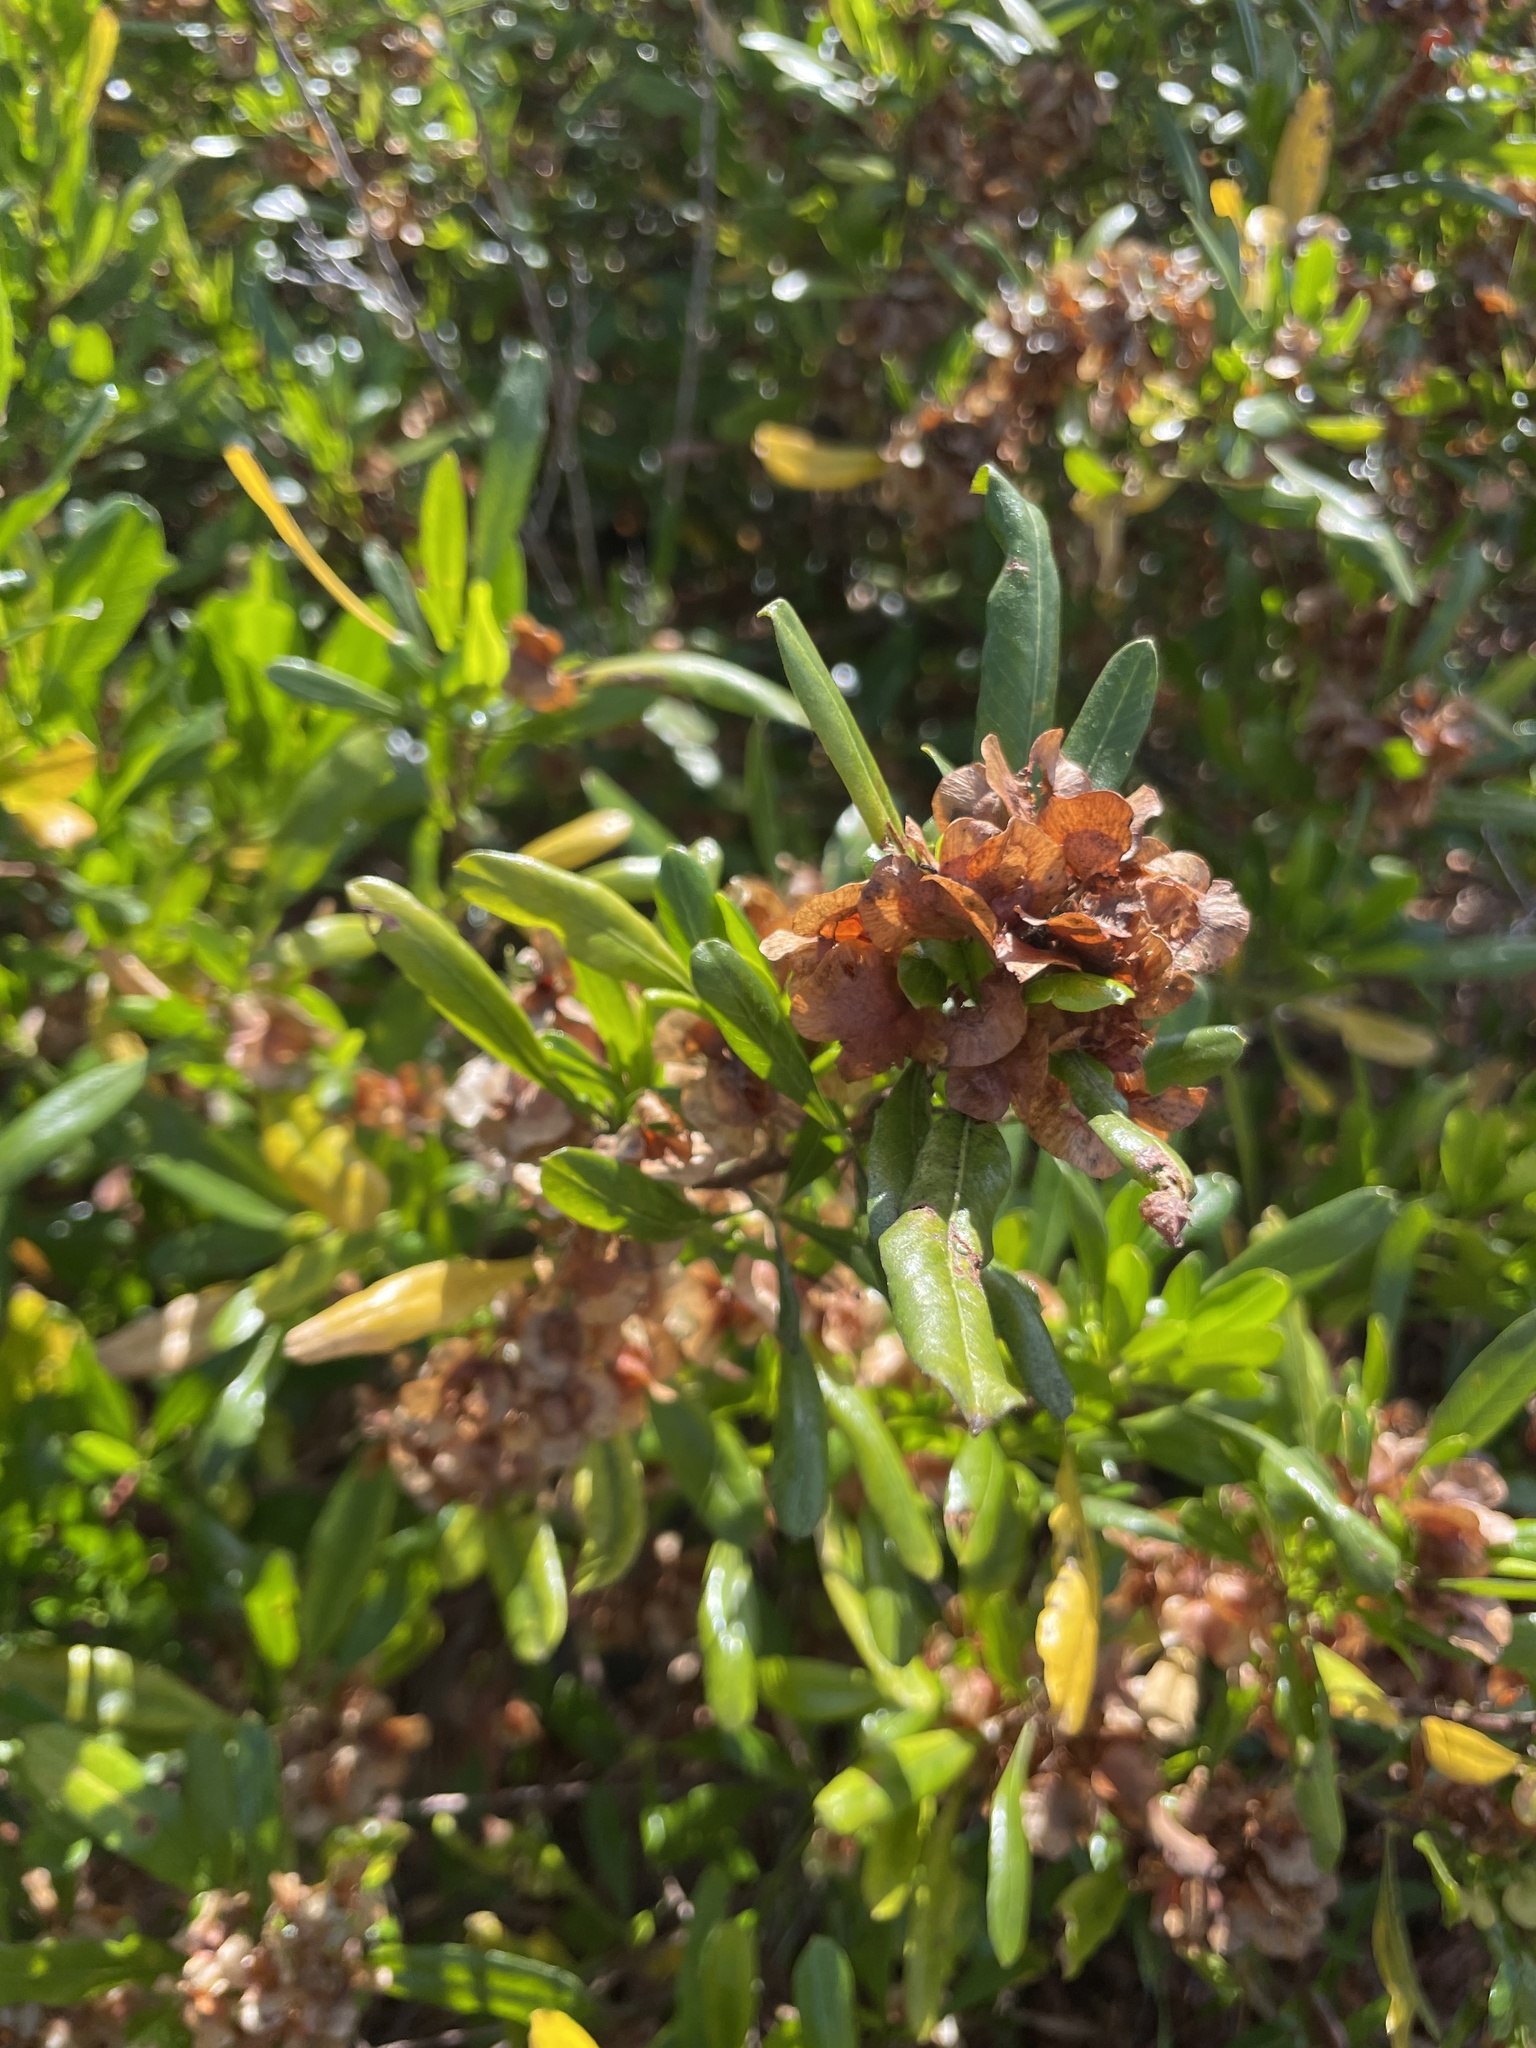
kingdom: Plantae
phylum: Tracheophyta
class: Magnoliopsida
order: Sapindales
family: Sapindaceae
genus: Dodonaea
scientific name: Dodonaea viscosa
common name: Hopbush
